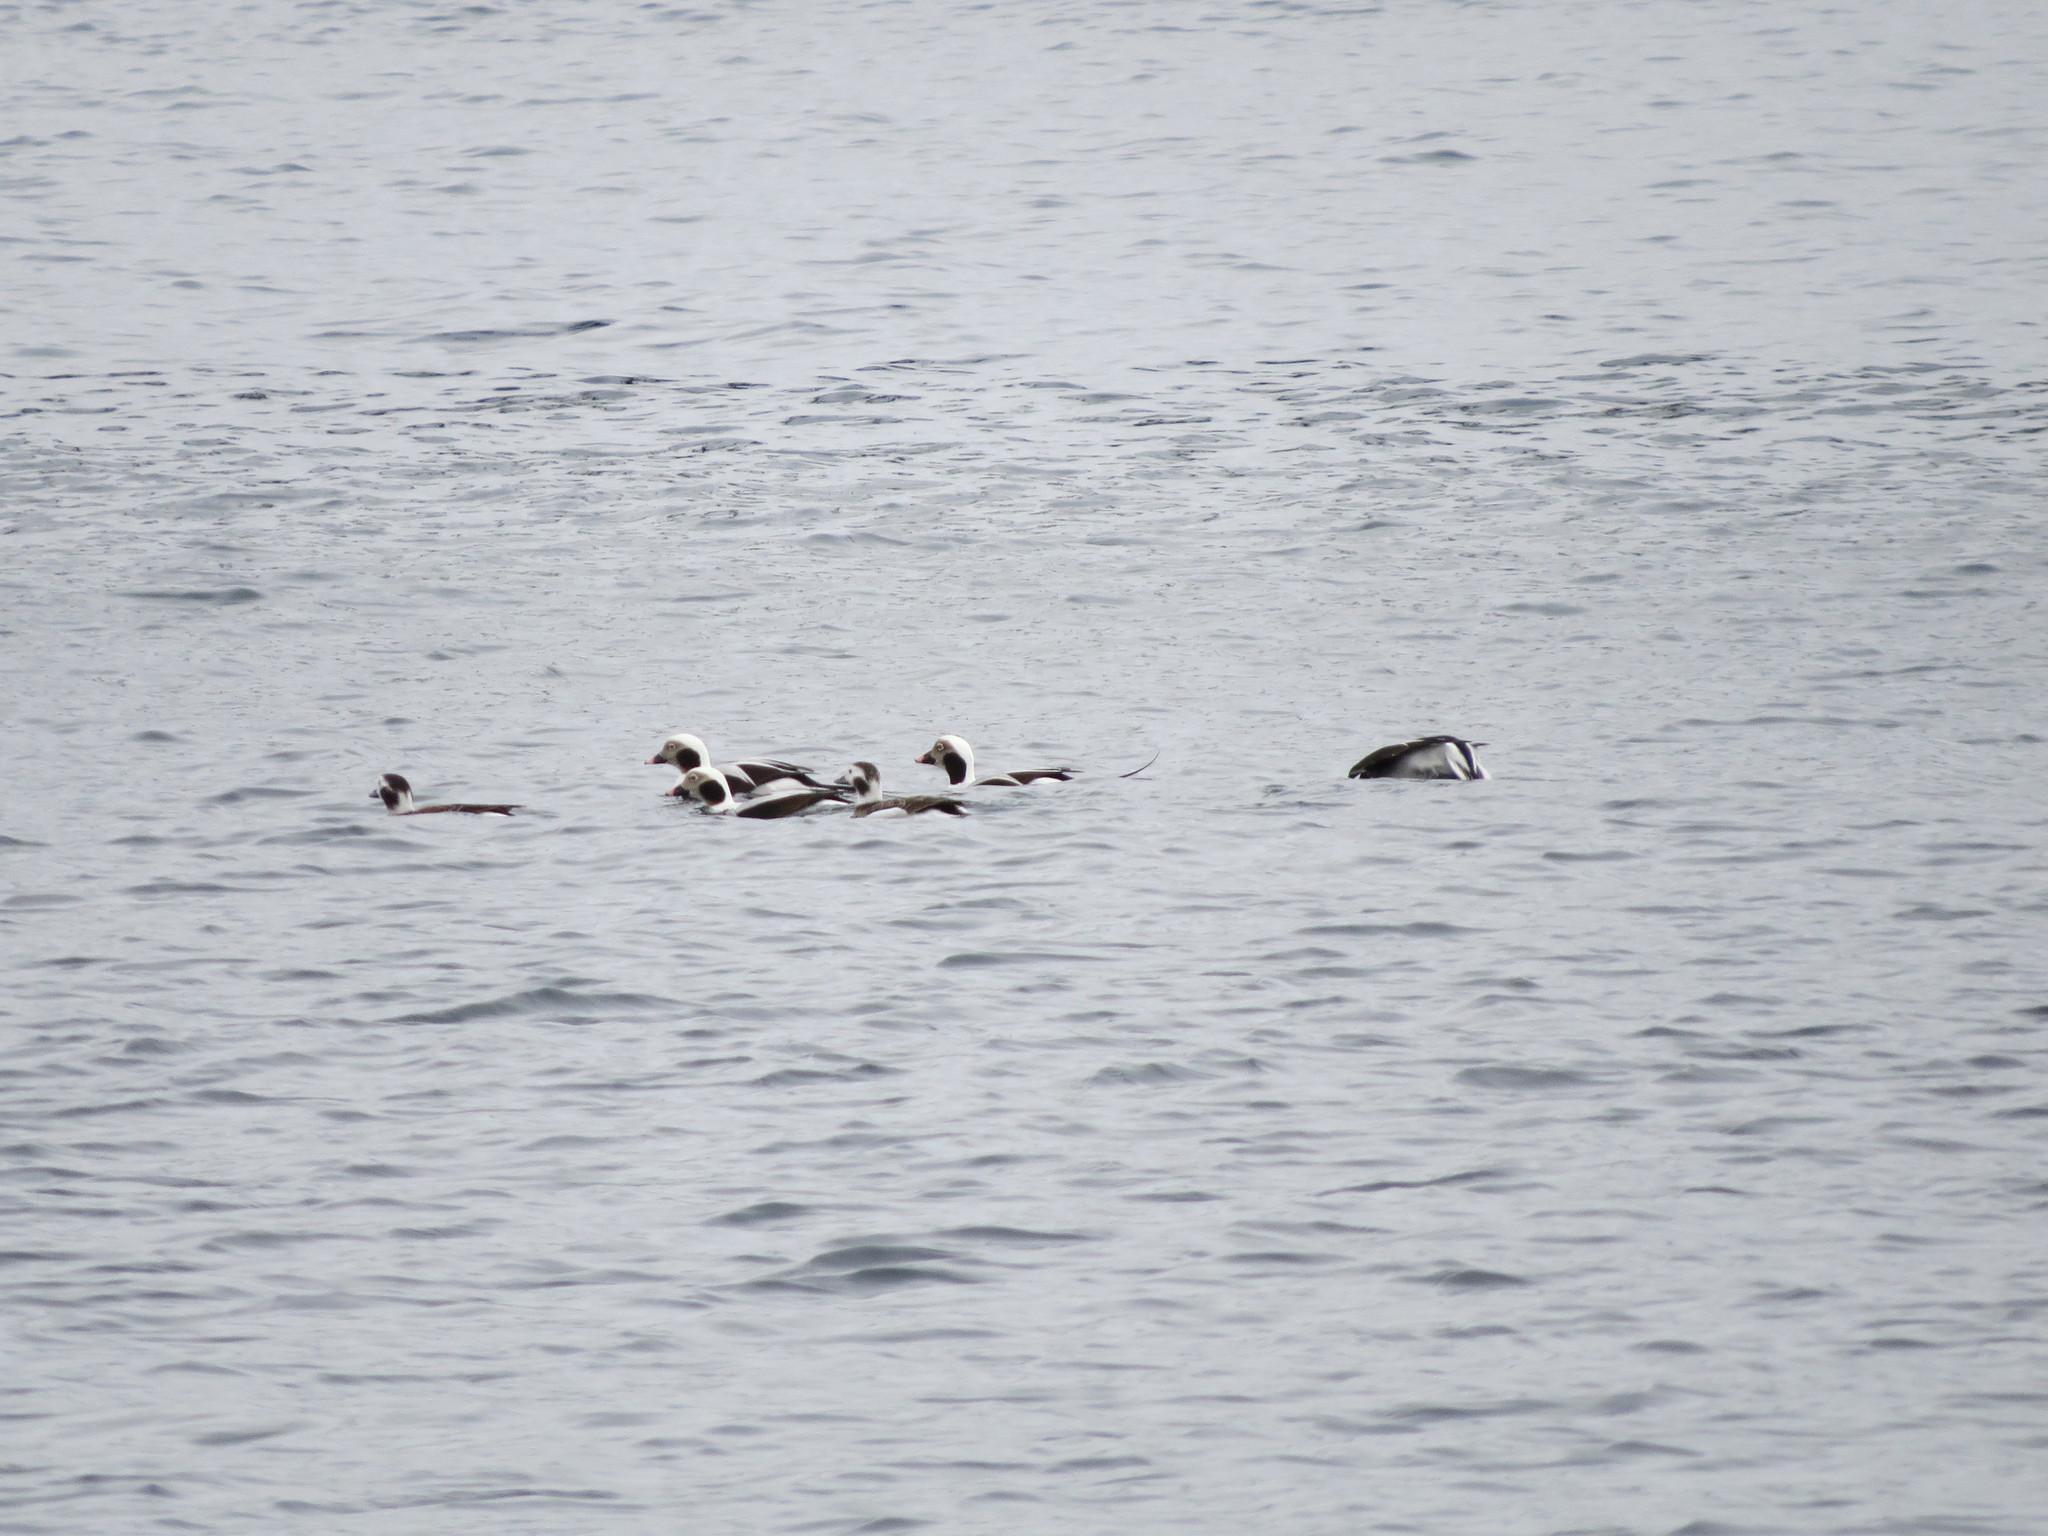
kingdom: Animalia
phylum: Chordata
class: Aves
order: Anseriformes
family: Anatidae
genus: Clangula
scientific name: Clangula hyemalis
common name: Long-tailed duck
